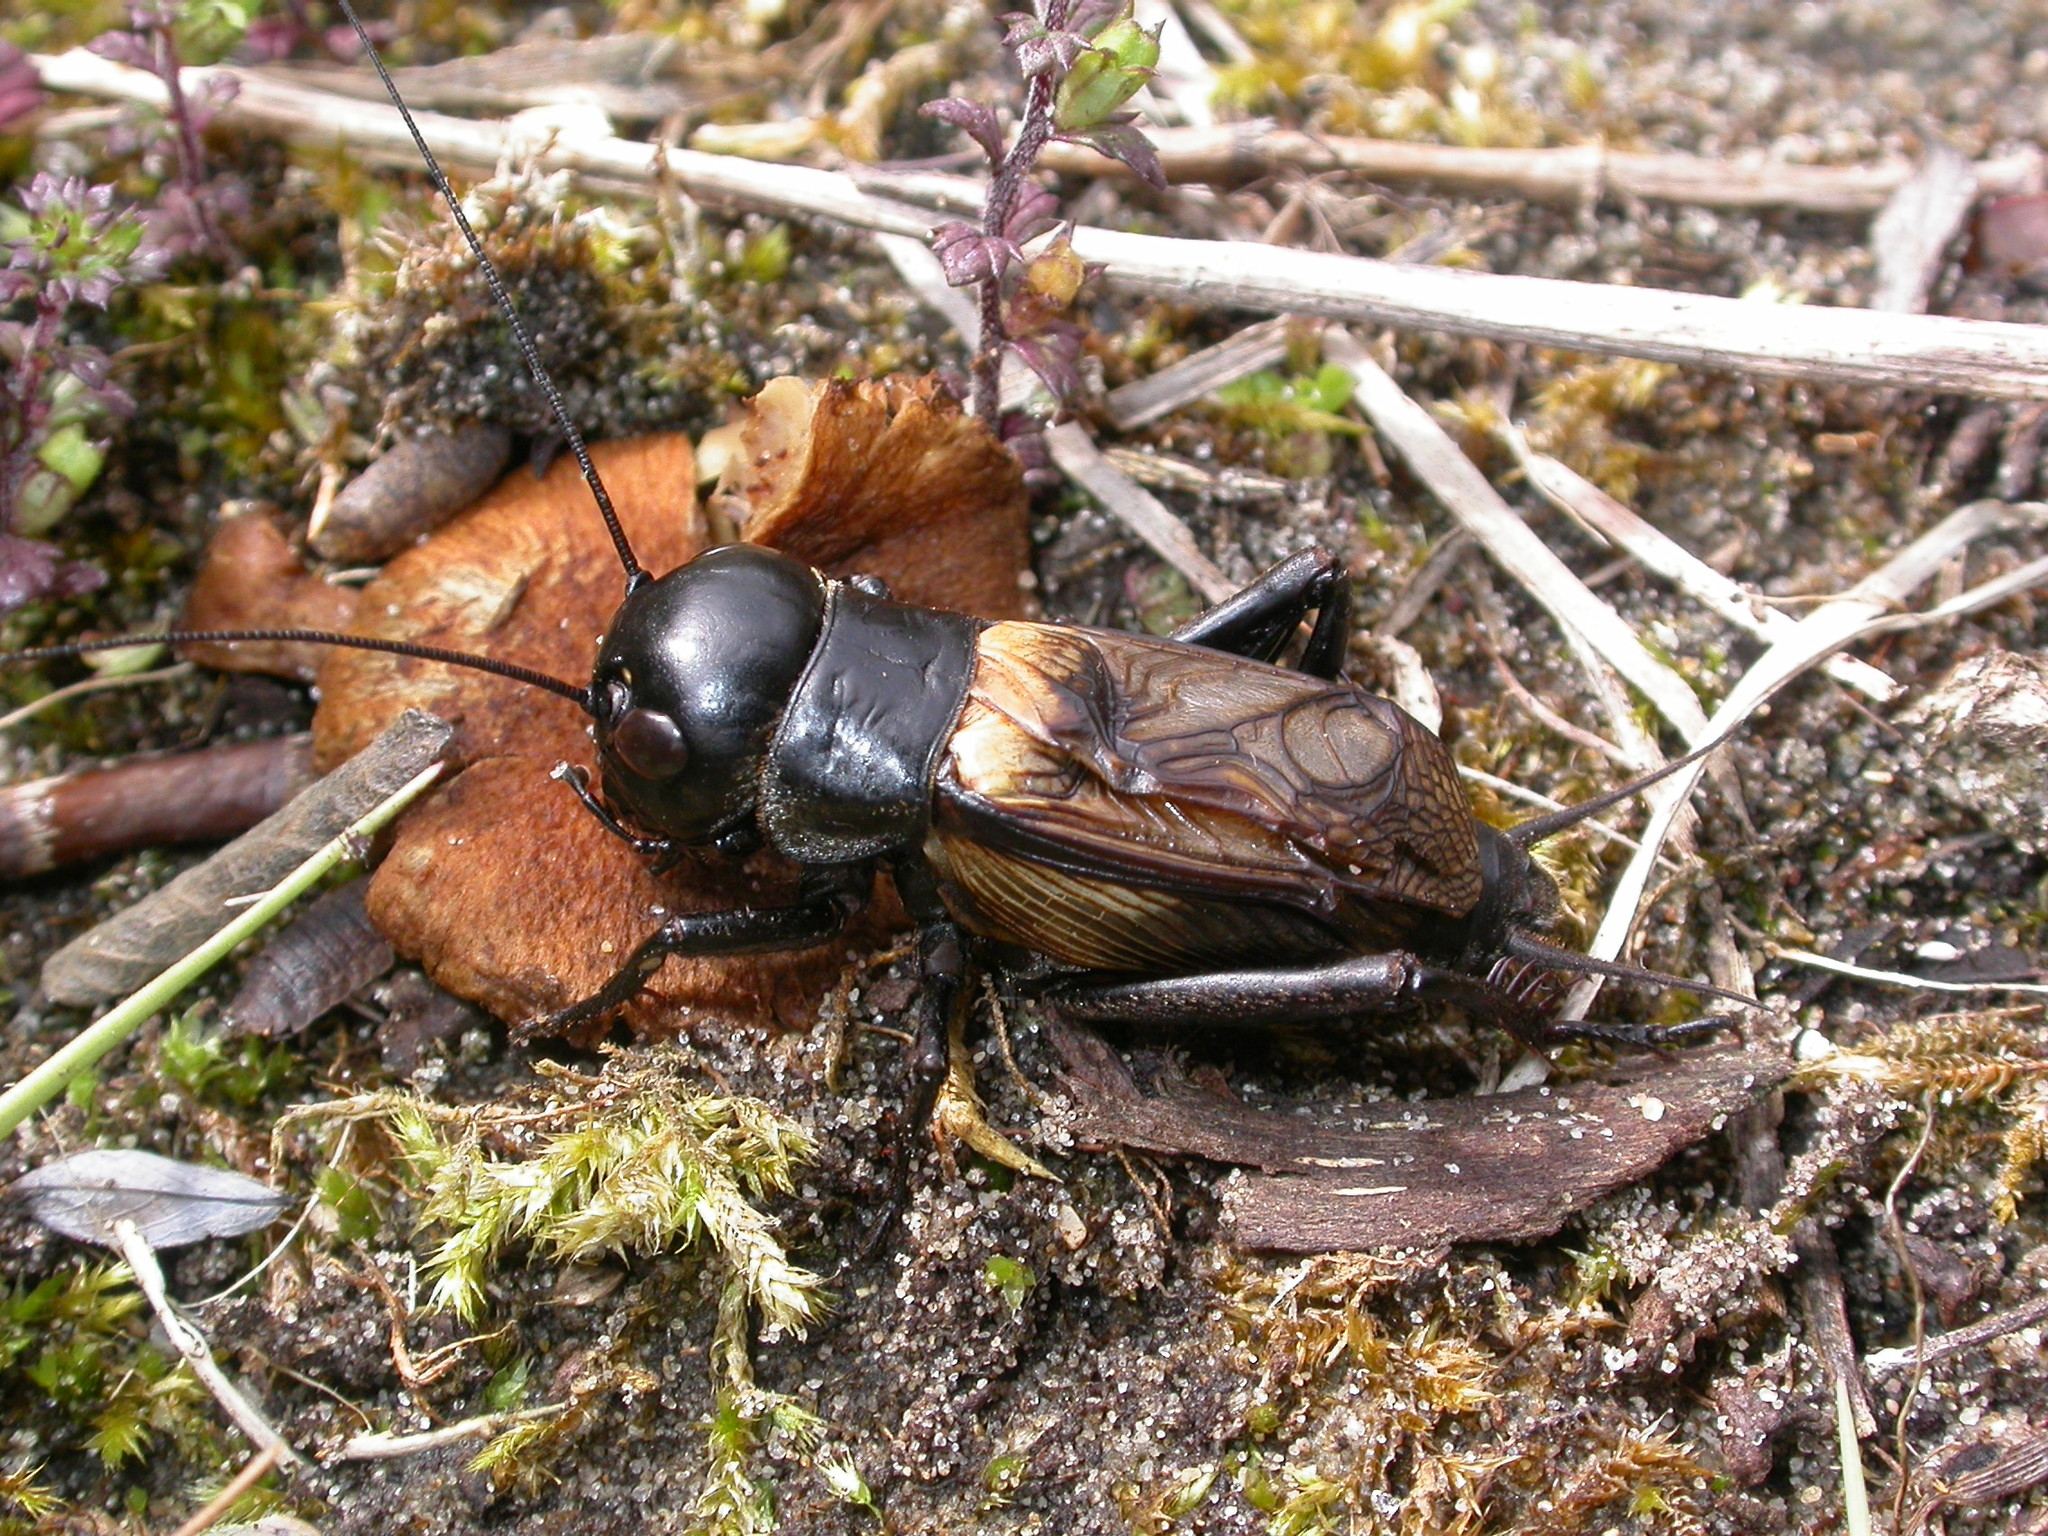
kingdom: Animalia
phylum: Arthropoda
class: Insecta
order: Orthoptera
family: Gryllidae
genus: Gryllus
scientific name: Gryllus campestris
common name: Field cricket
